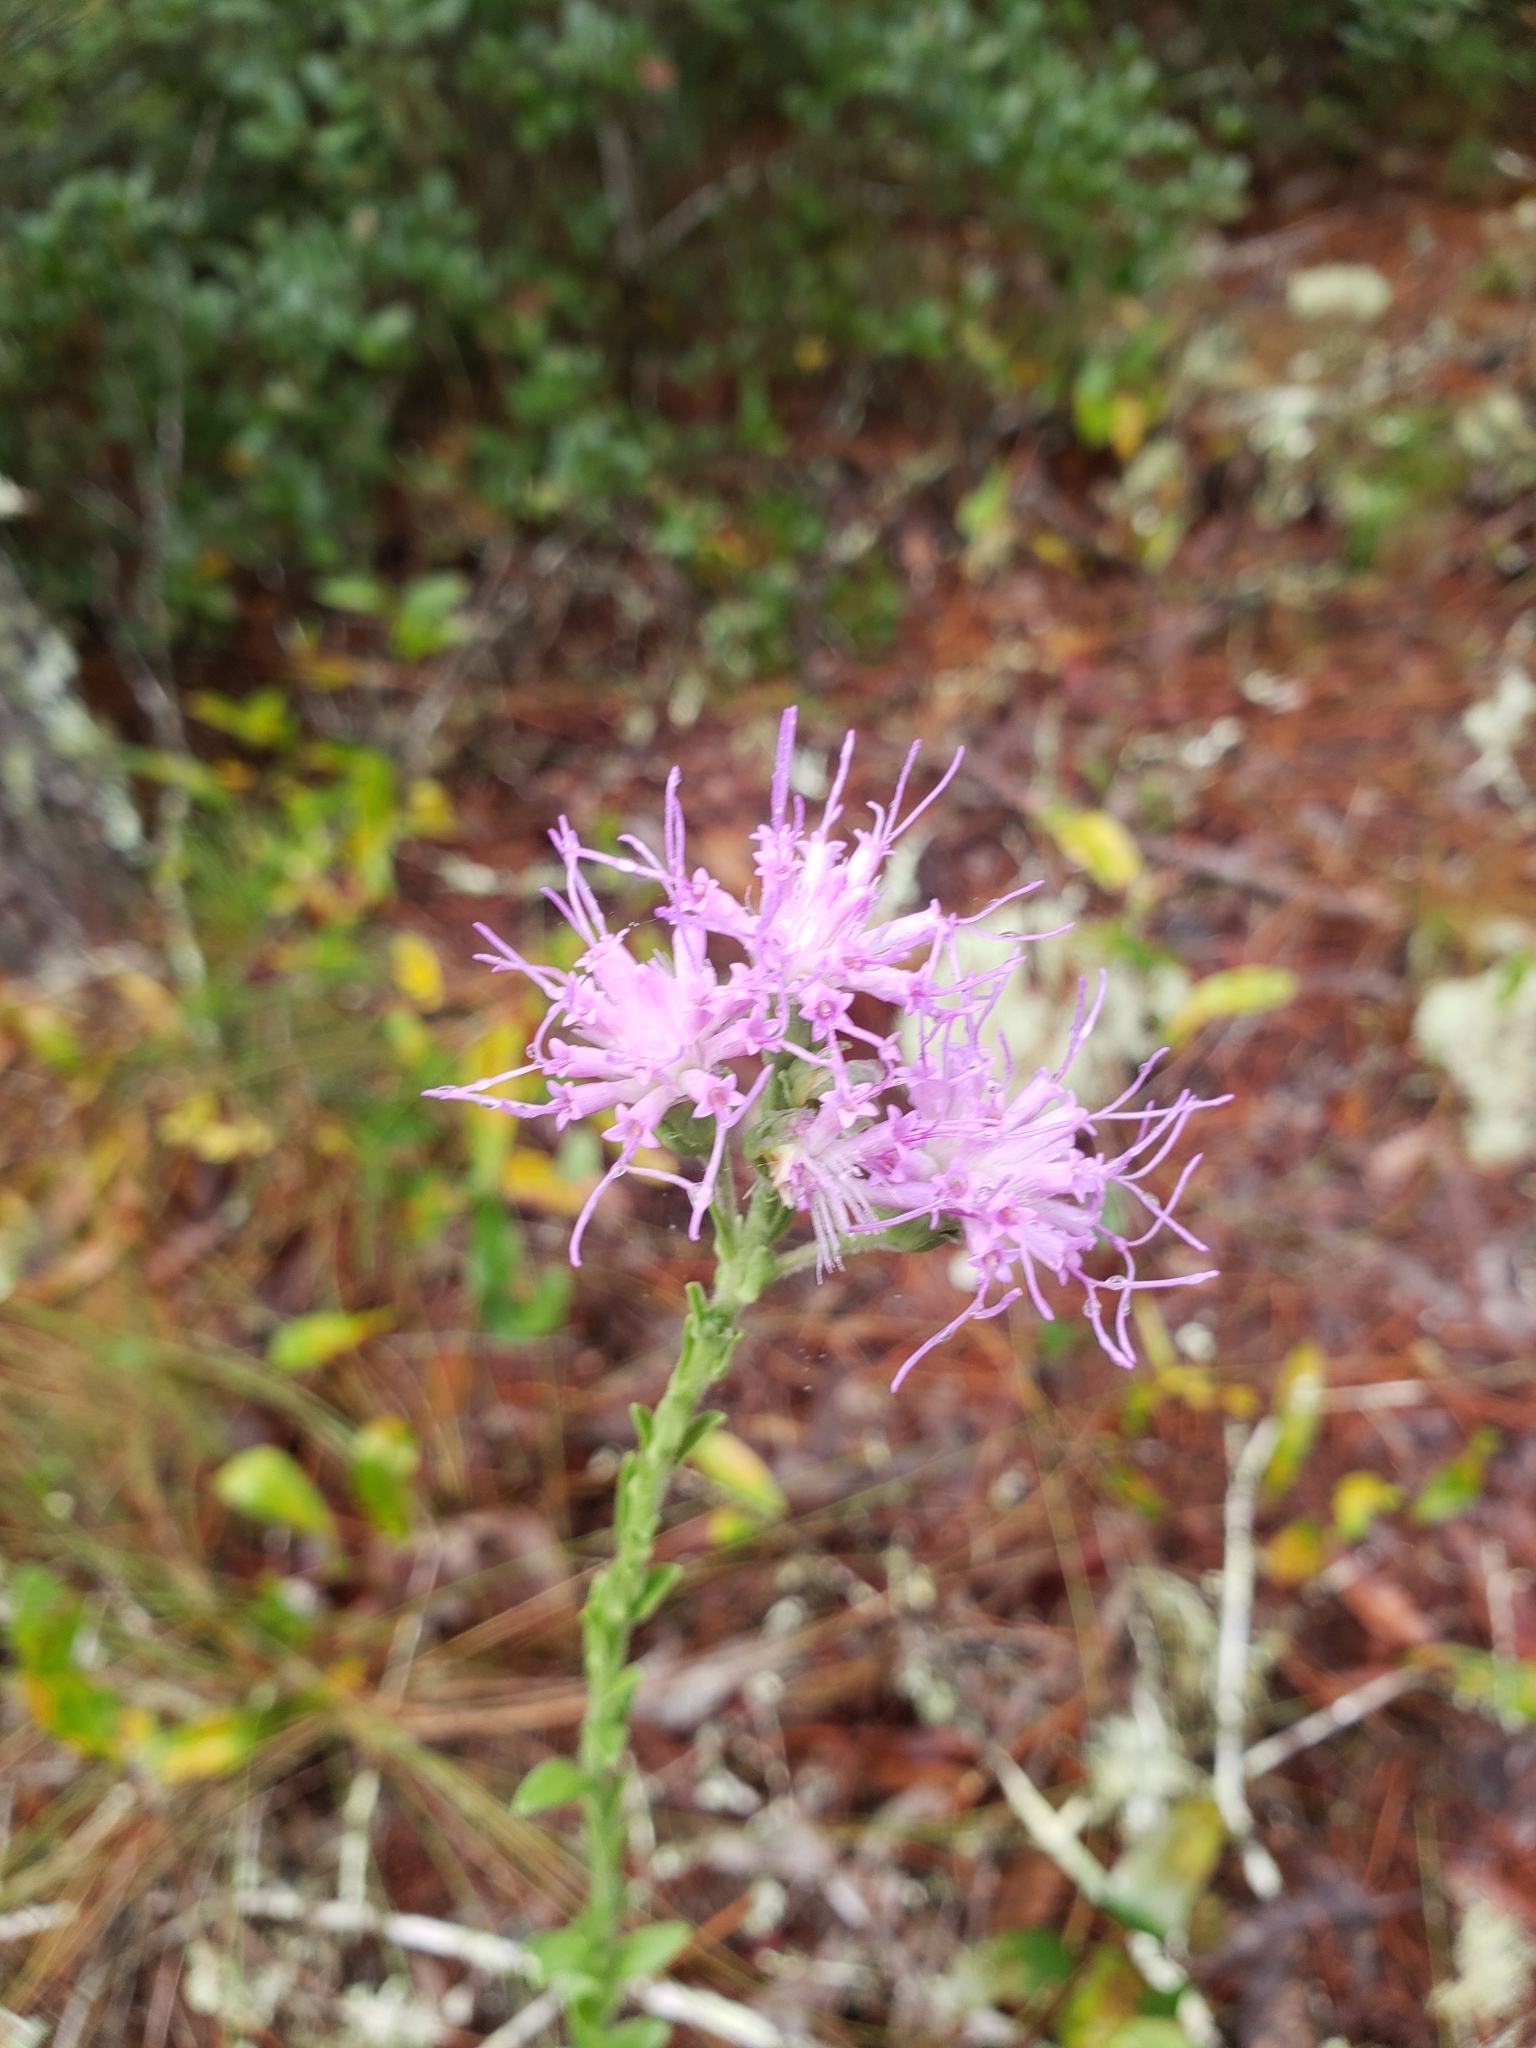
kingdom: Plantae
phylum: Tracheophyta
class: Magnoliopsida
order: Asterales
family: Asteraceae
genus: Carphephorus
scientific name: Carphephorus corymbosus
